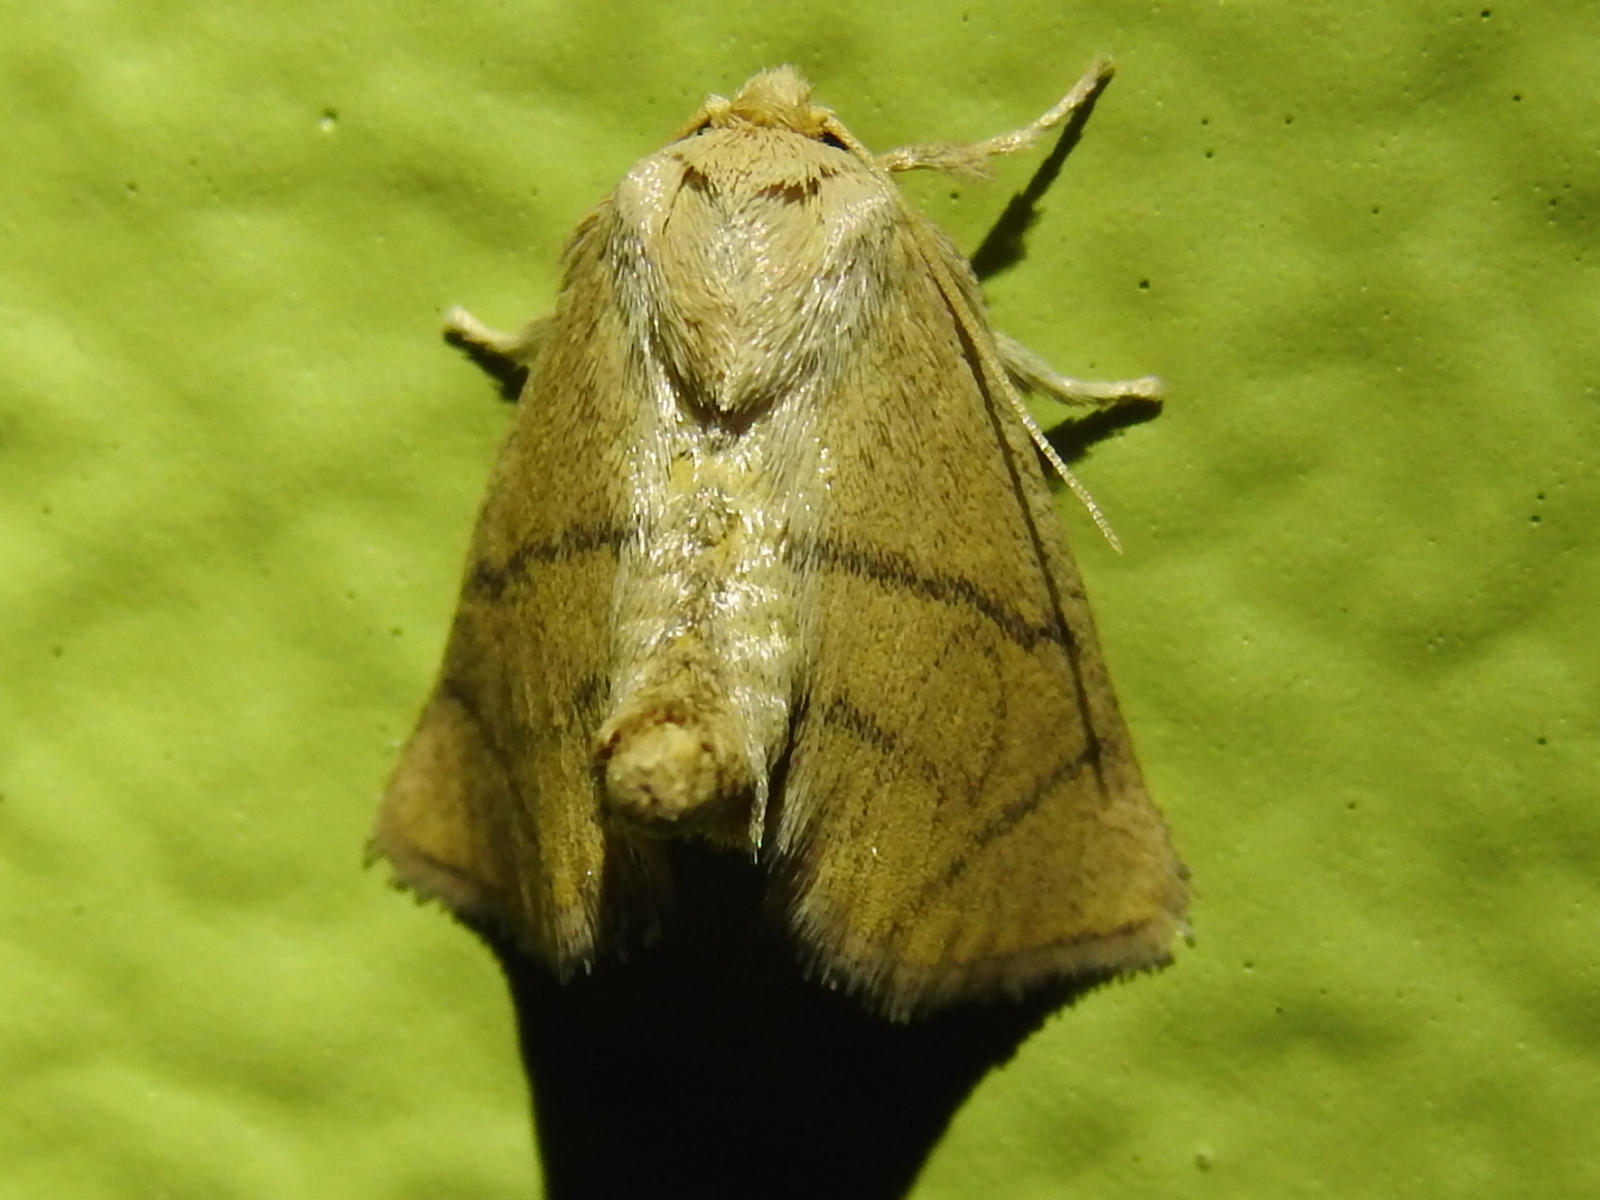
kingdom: Animalia
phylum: Arthropoda
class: Insecta
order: Lepidoptera
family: Limacodidae
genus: Apoda
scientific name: Apoda y-inversa
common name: Yellow-collared slug moth
